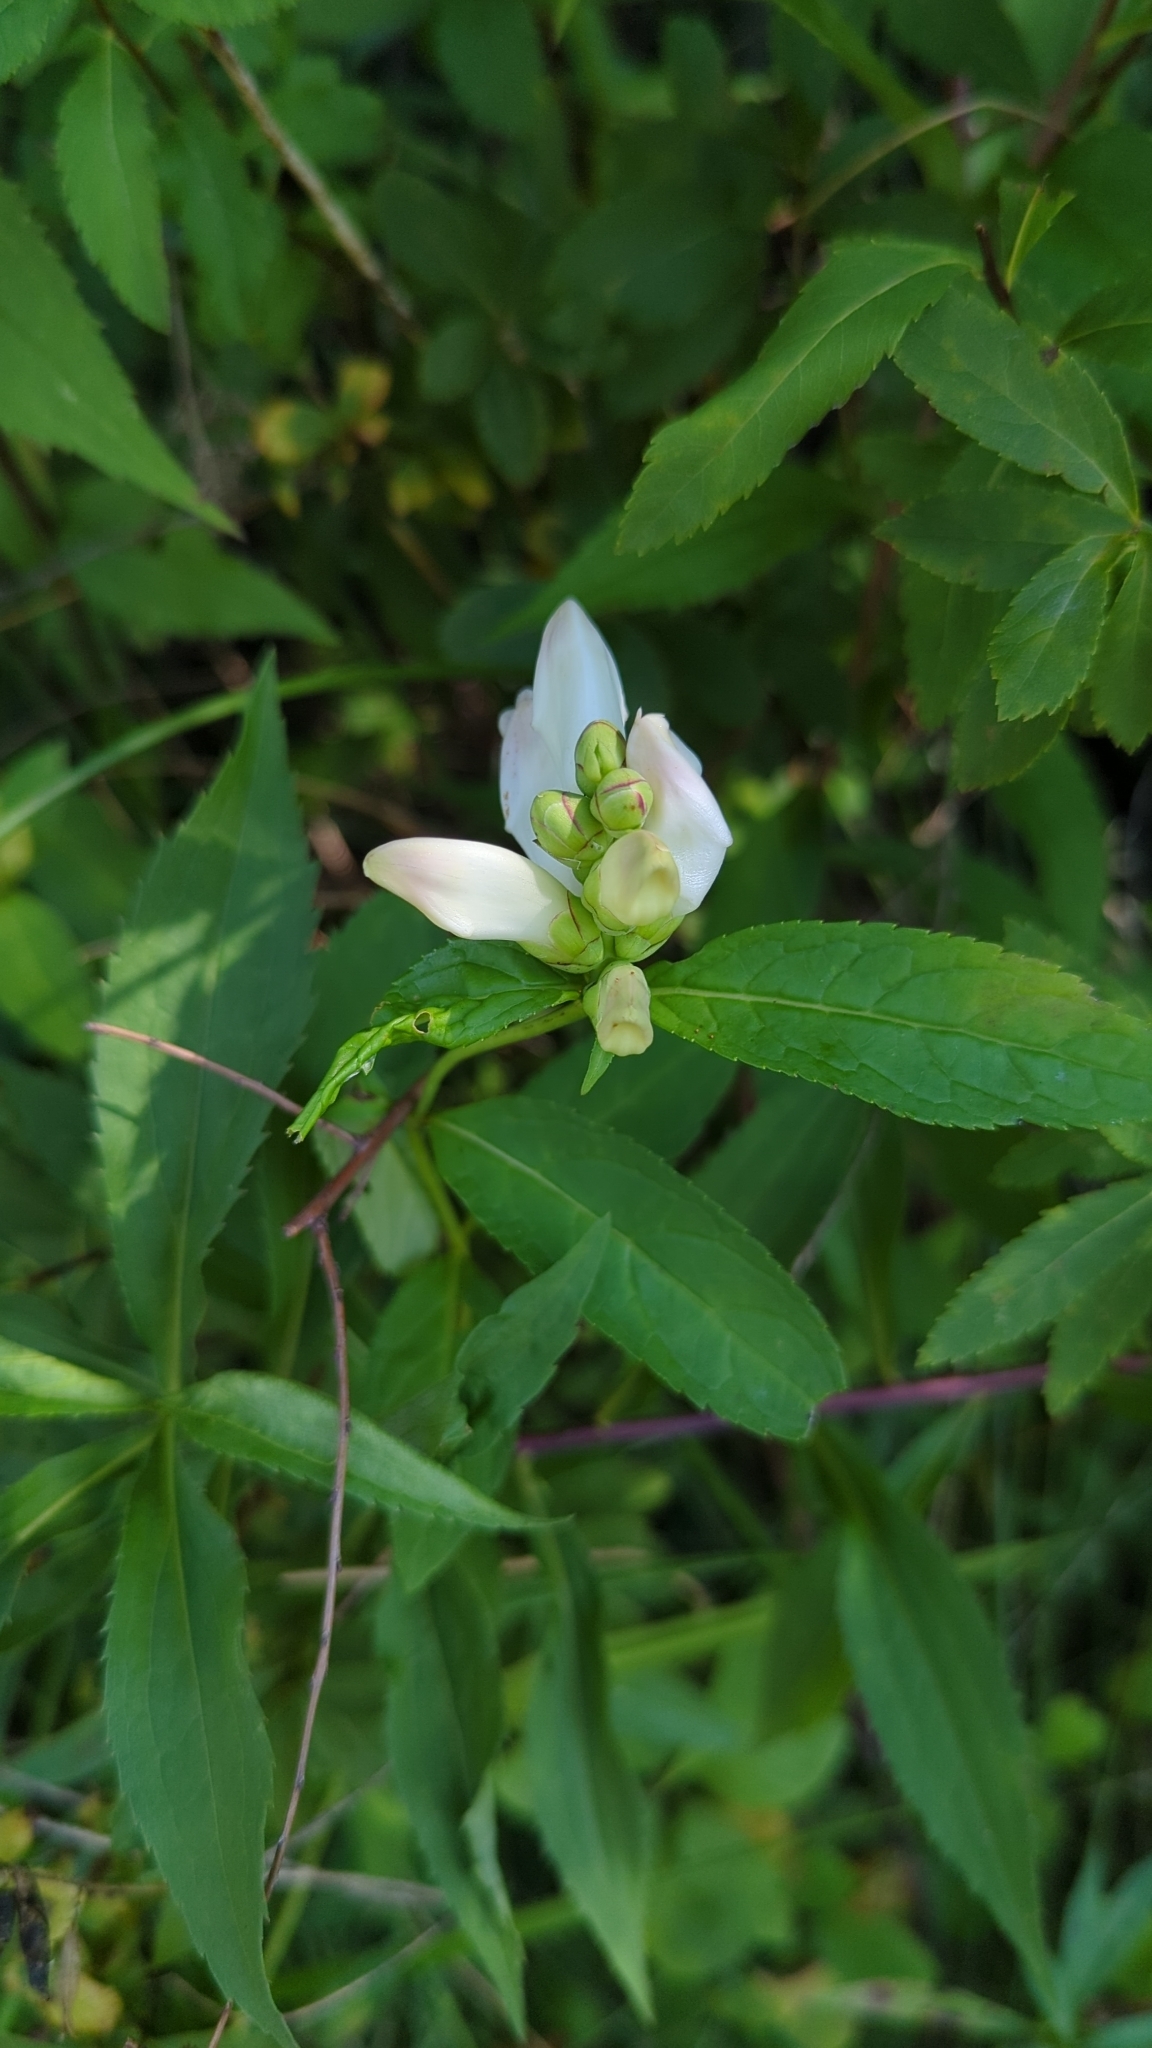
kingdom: Plantae
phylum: Tracheophyta
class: Magnoliopsida
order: Lamiales
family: Plantaginaceae
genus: Chelone
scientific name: Chelone glabra
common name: Snakehead
